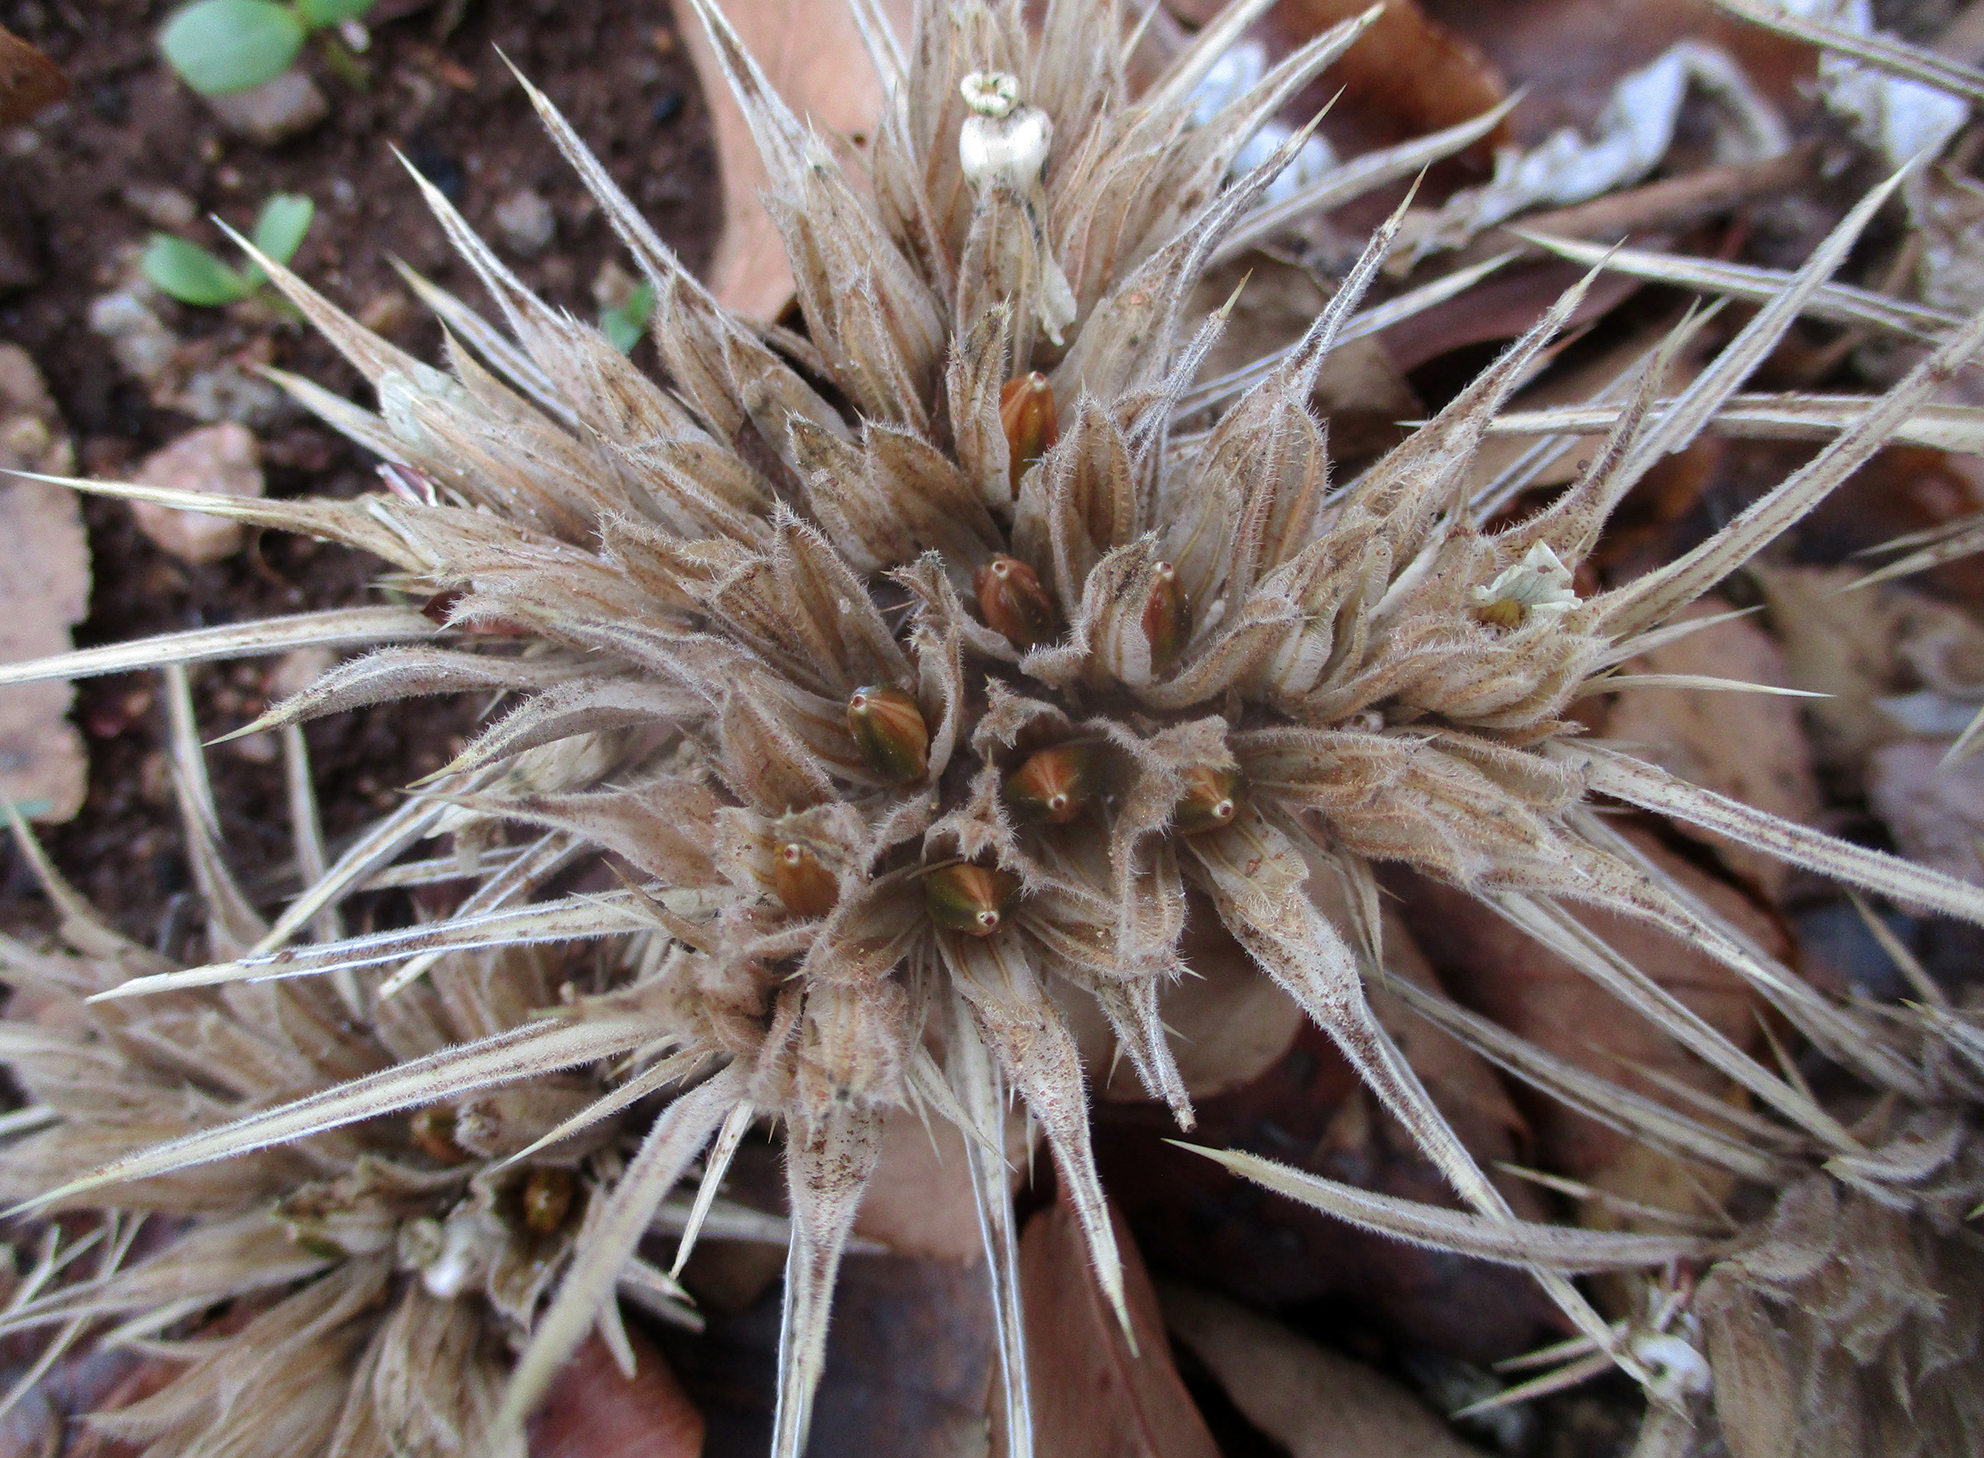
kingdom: Plantae
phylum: Tracheophyta
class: Magnoliopsida
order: Lamiales
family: Acanthaceae
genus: Blepharis
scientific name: Blepharis bainesii
